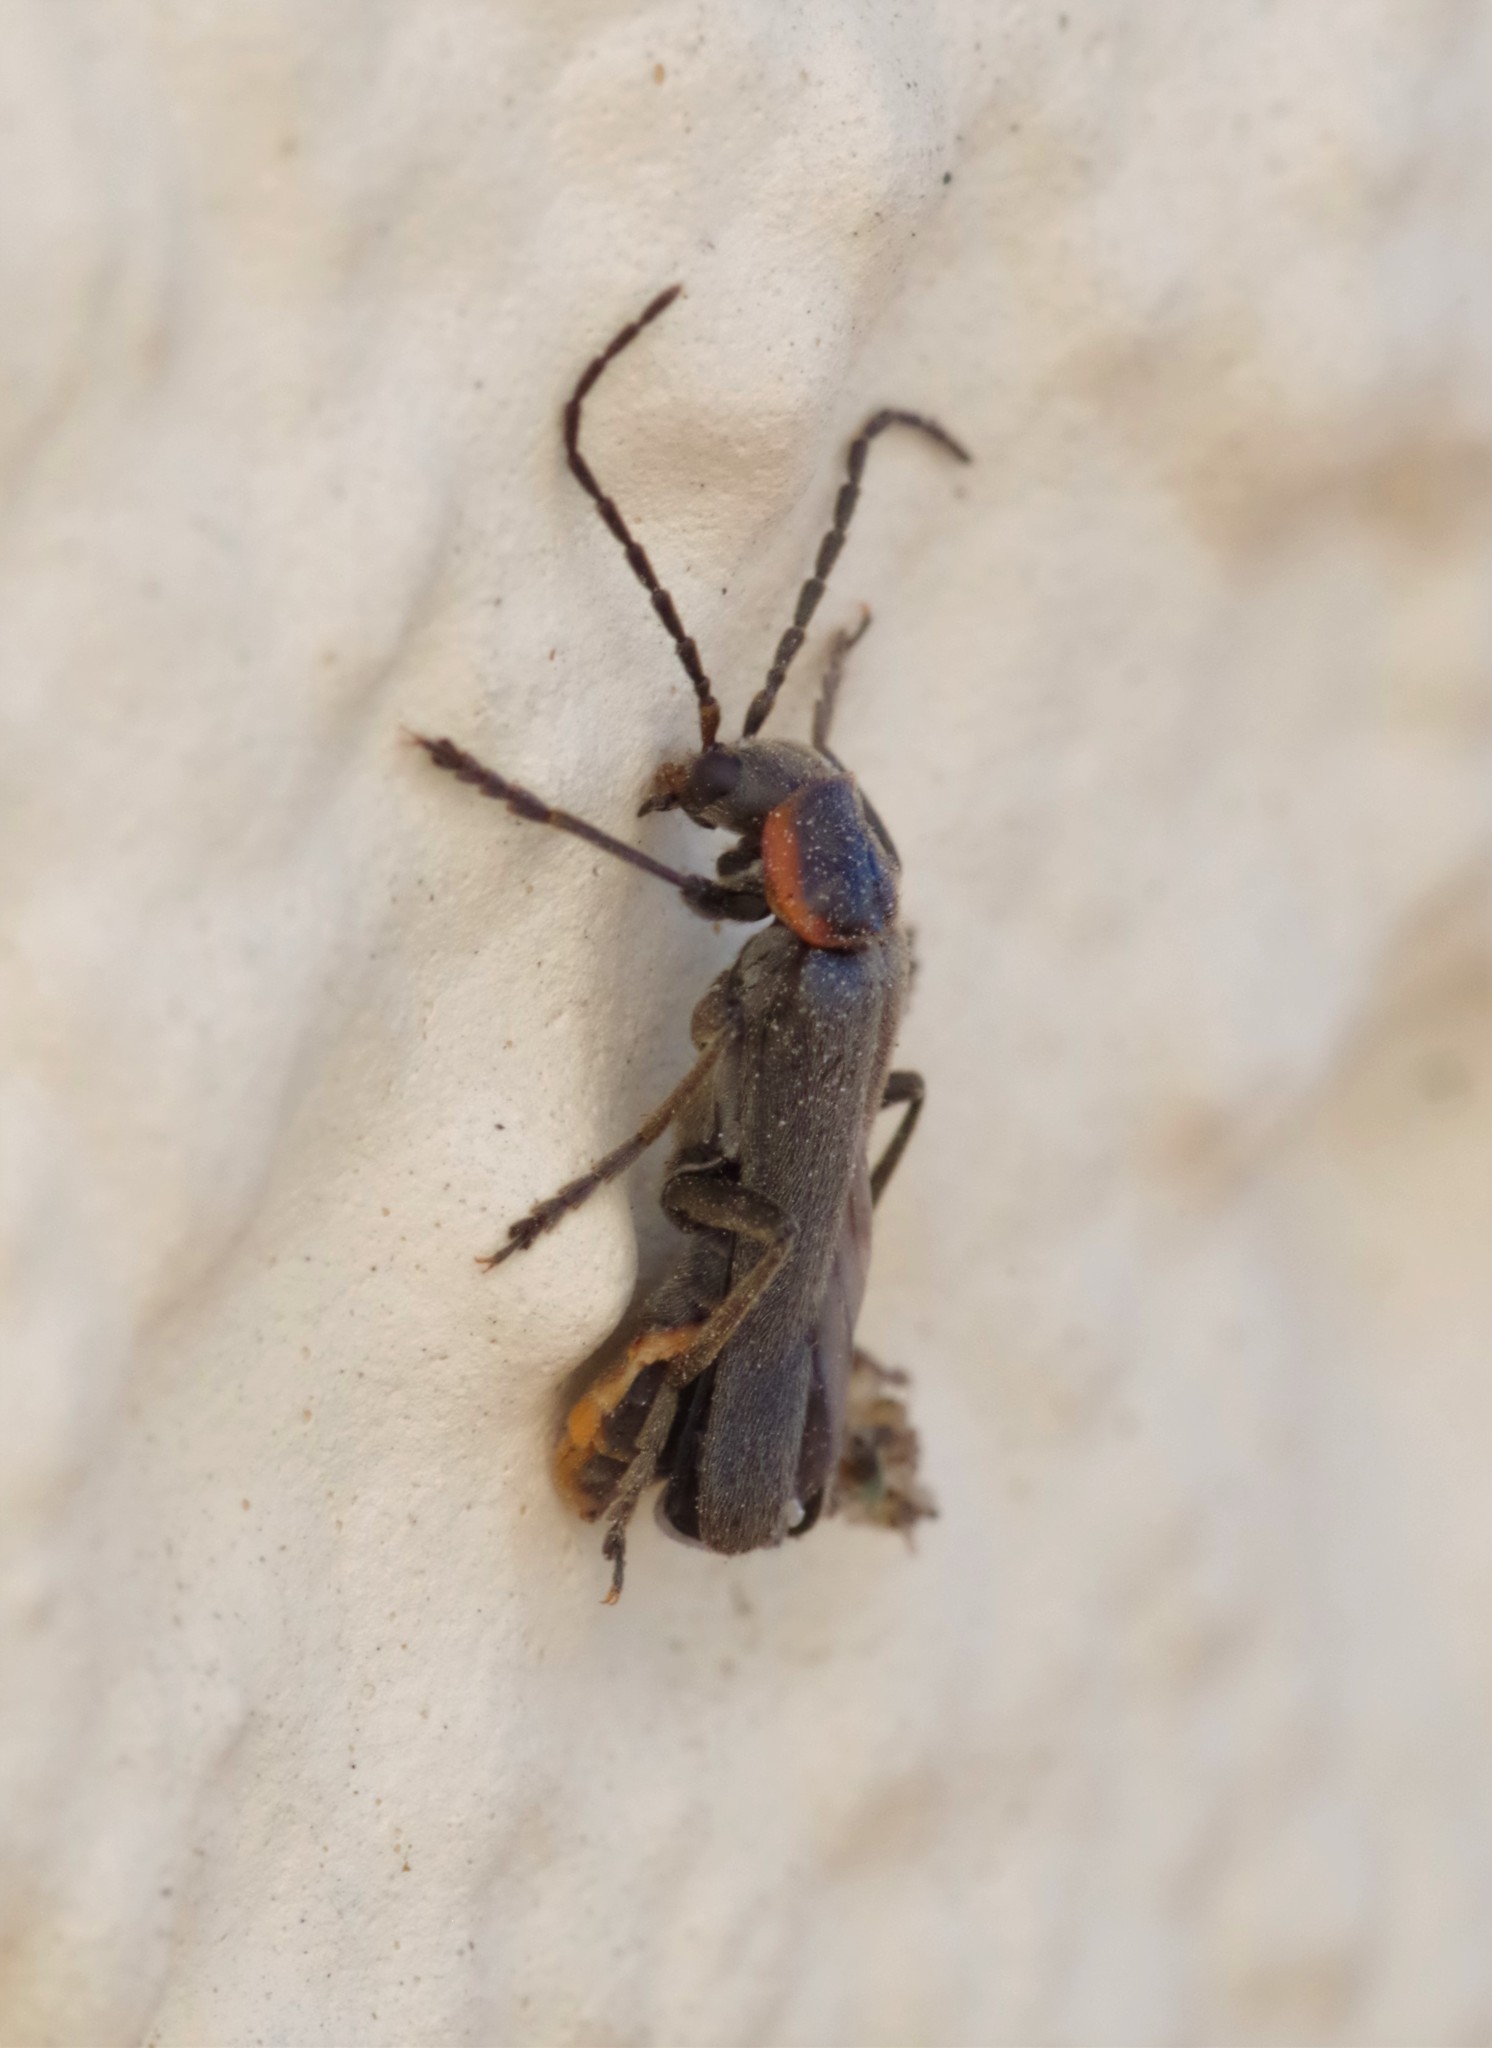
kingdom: Animalia
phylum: Arthropoda
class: Insecta
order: Coleoptera
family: Cantharidae
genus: Cantharis
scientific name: Cantharis pulicaria
